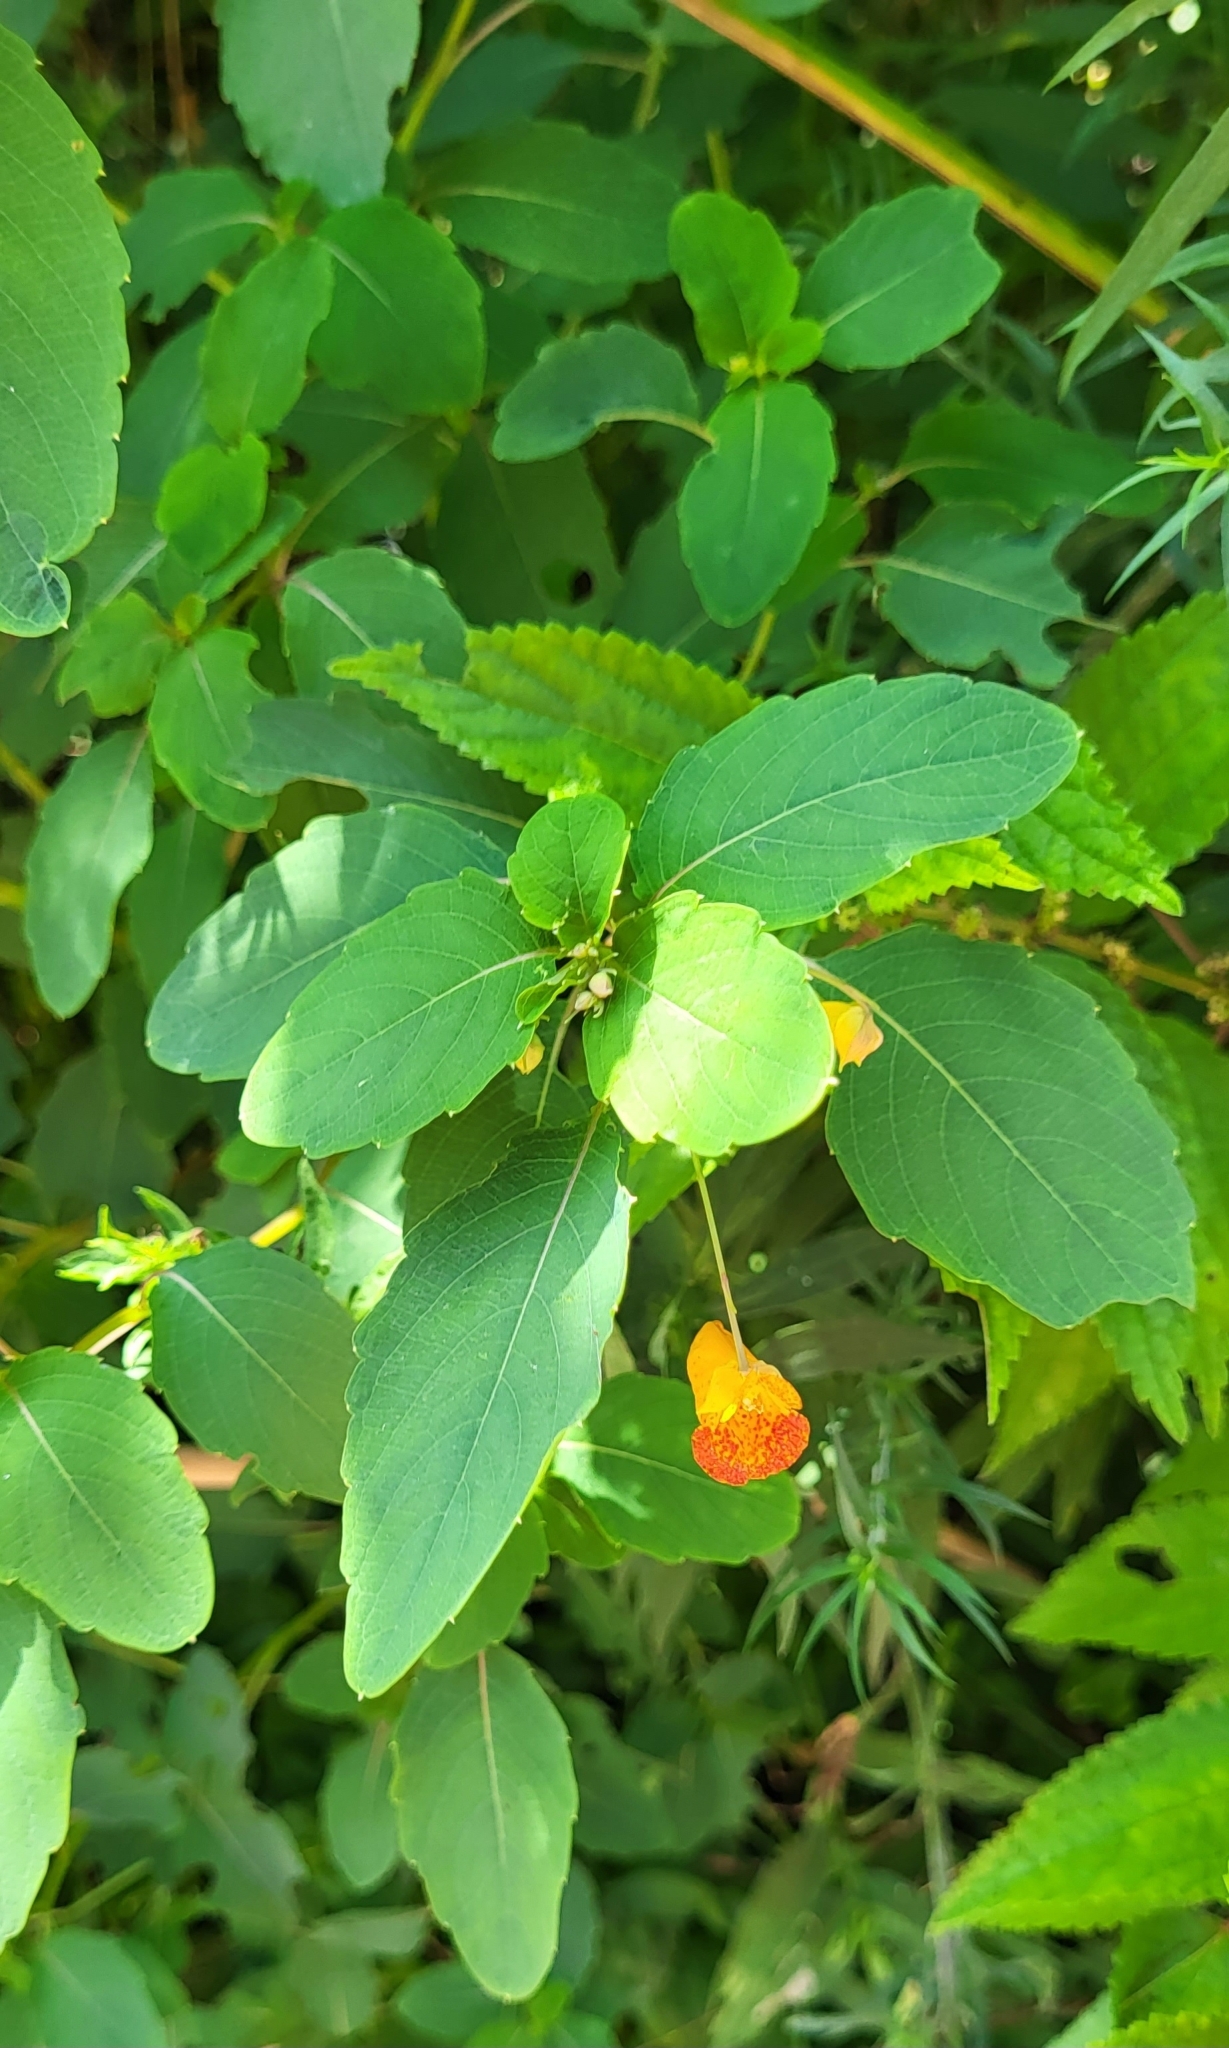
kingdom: Plantae
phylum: Tracheophyta
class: Magnoliopsida
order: Ericales
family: Balsaminaceae
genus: Impatiens
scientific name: Impatiens capensis
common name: Orange balsam
